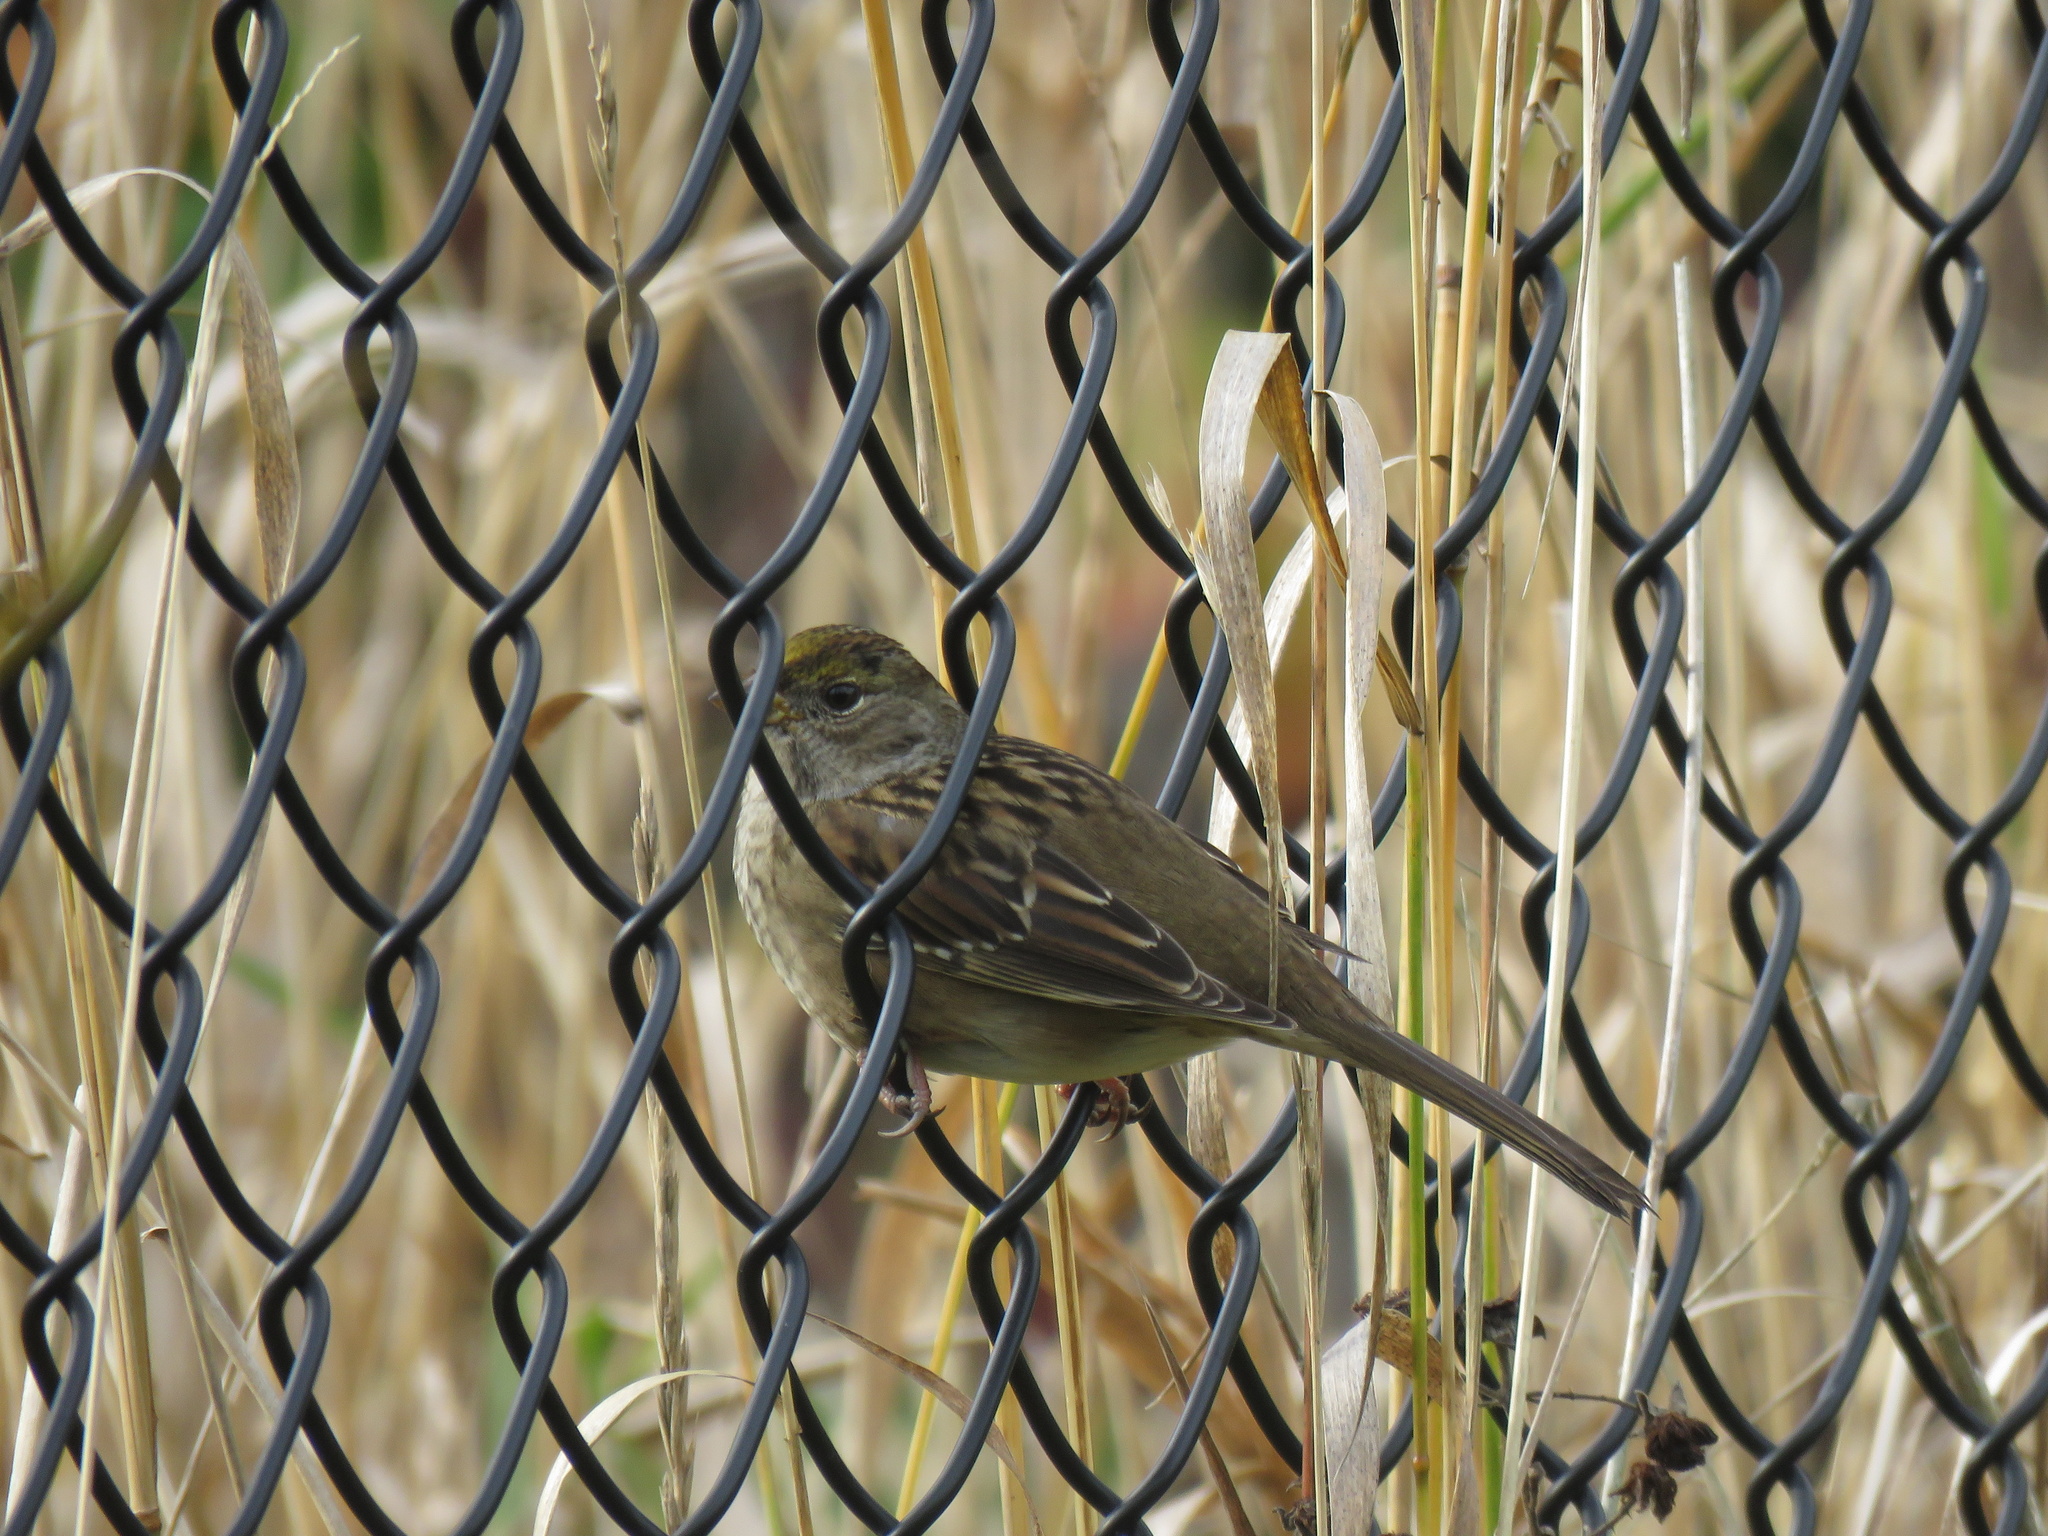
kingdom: Animalia
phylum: Chordata
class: Aves
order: Passeriformes
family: Passerellidae
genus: Zonotrichia
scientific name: Zonotrichia atricapilla
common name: Golden-crowned sparrow
